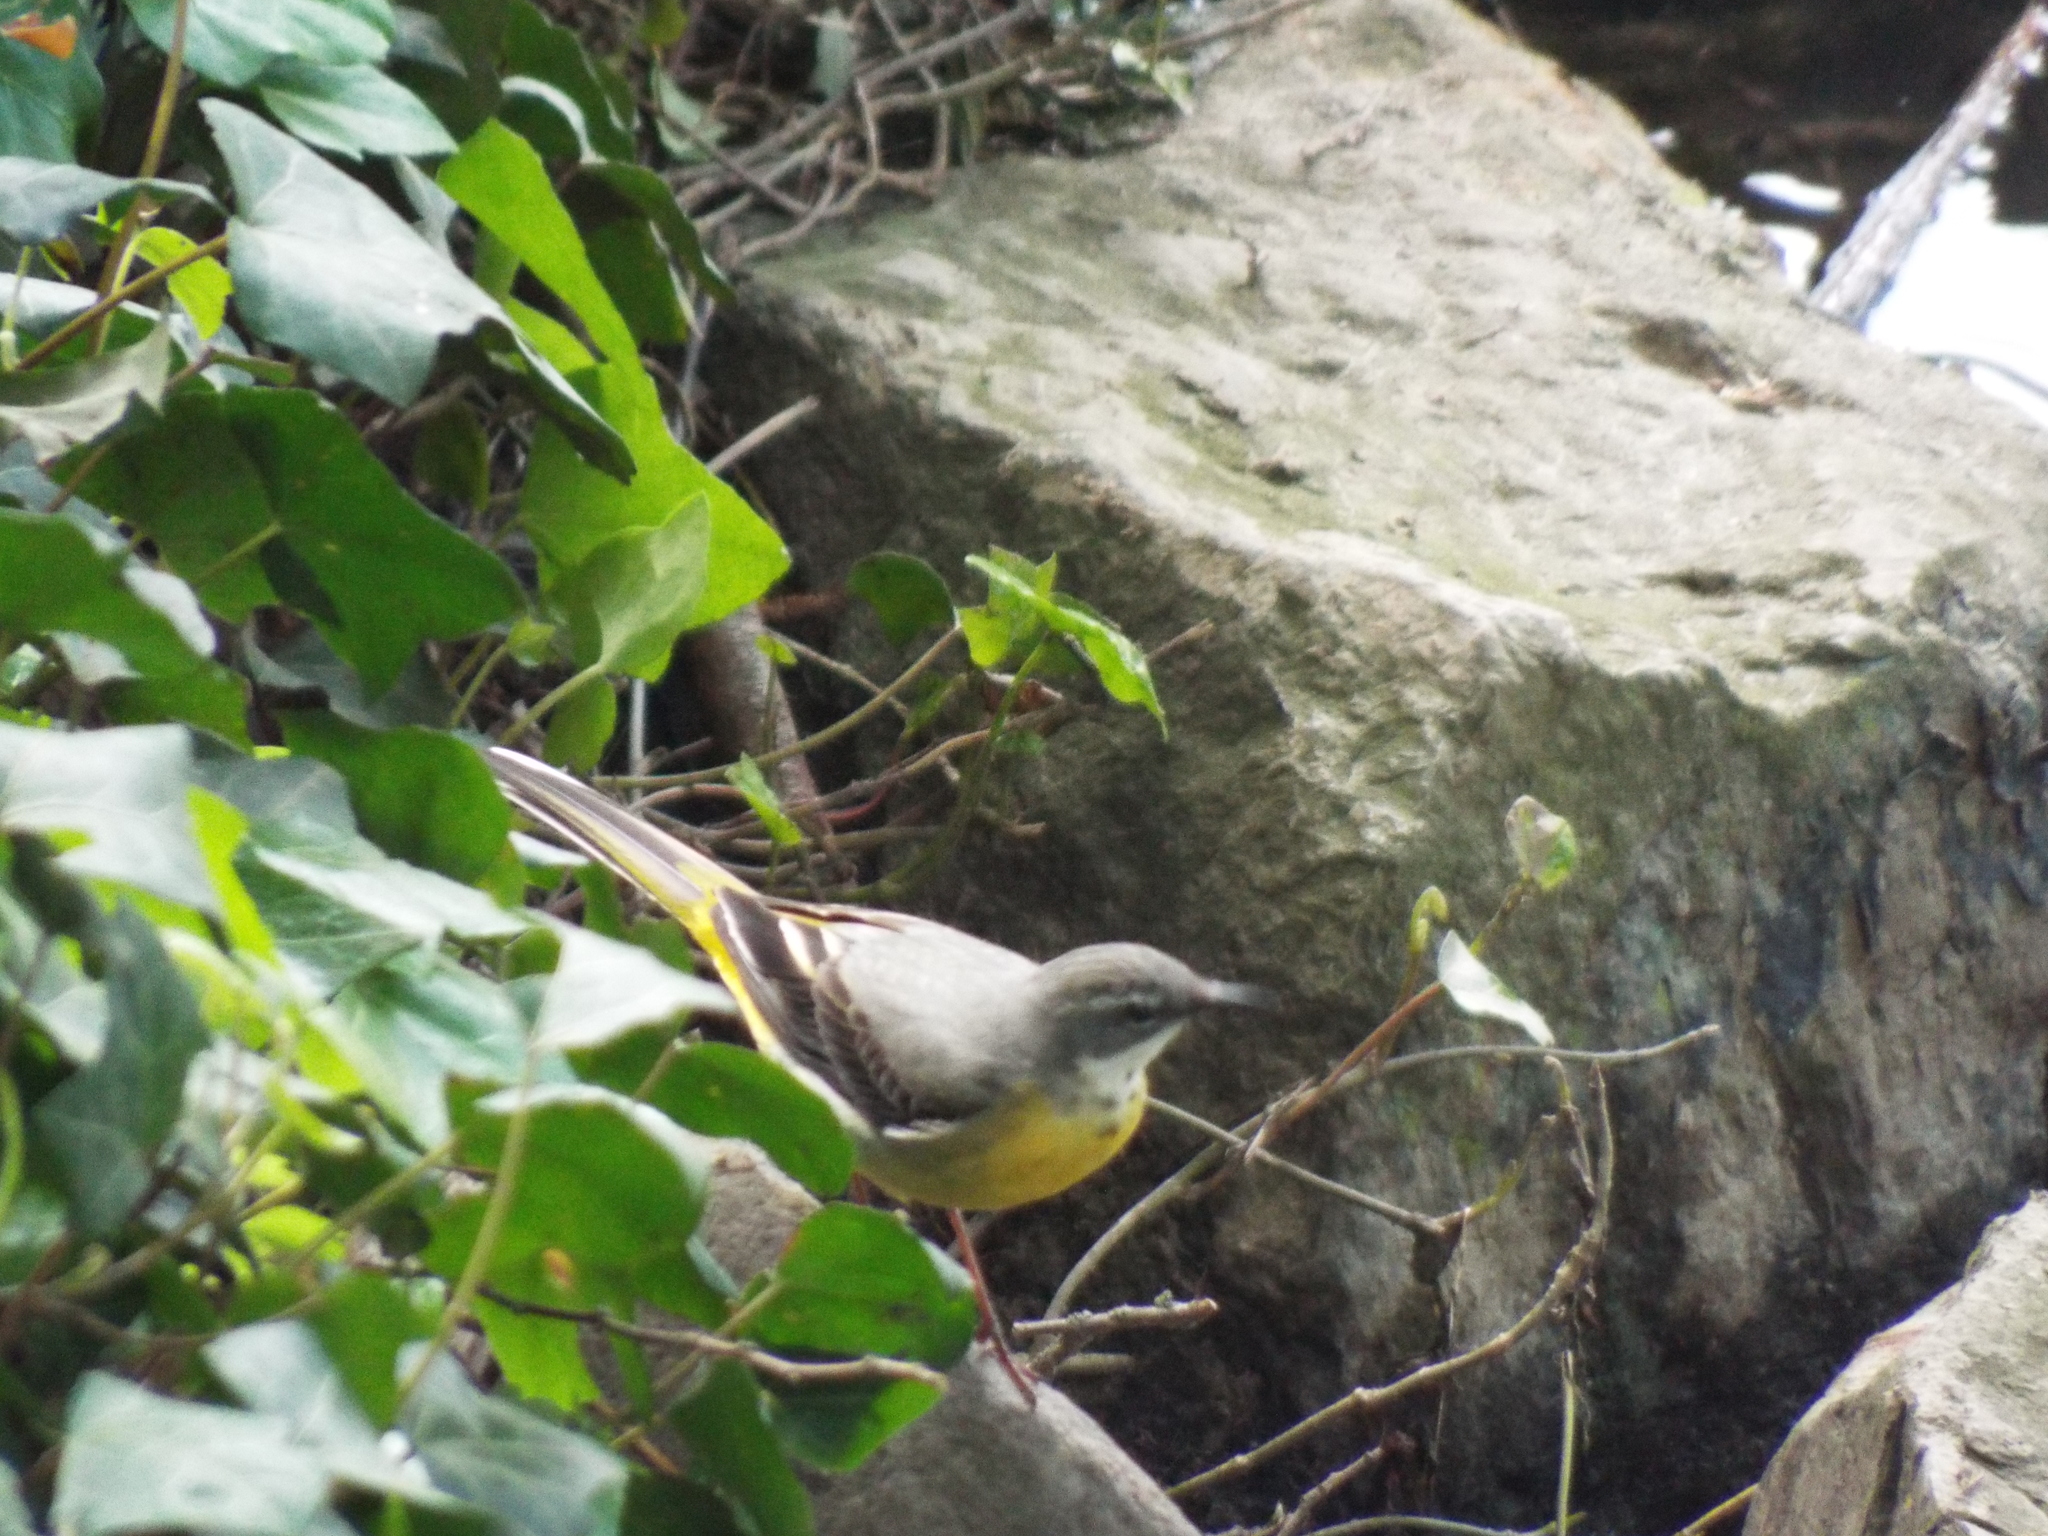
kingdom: Animalia
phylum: Chordata
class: Aves
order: Passeriformes
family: Motacillidae
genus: Motacilla
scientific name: Motacilla cinerea
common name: Grey wagtail
